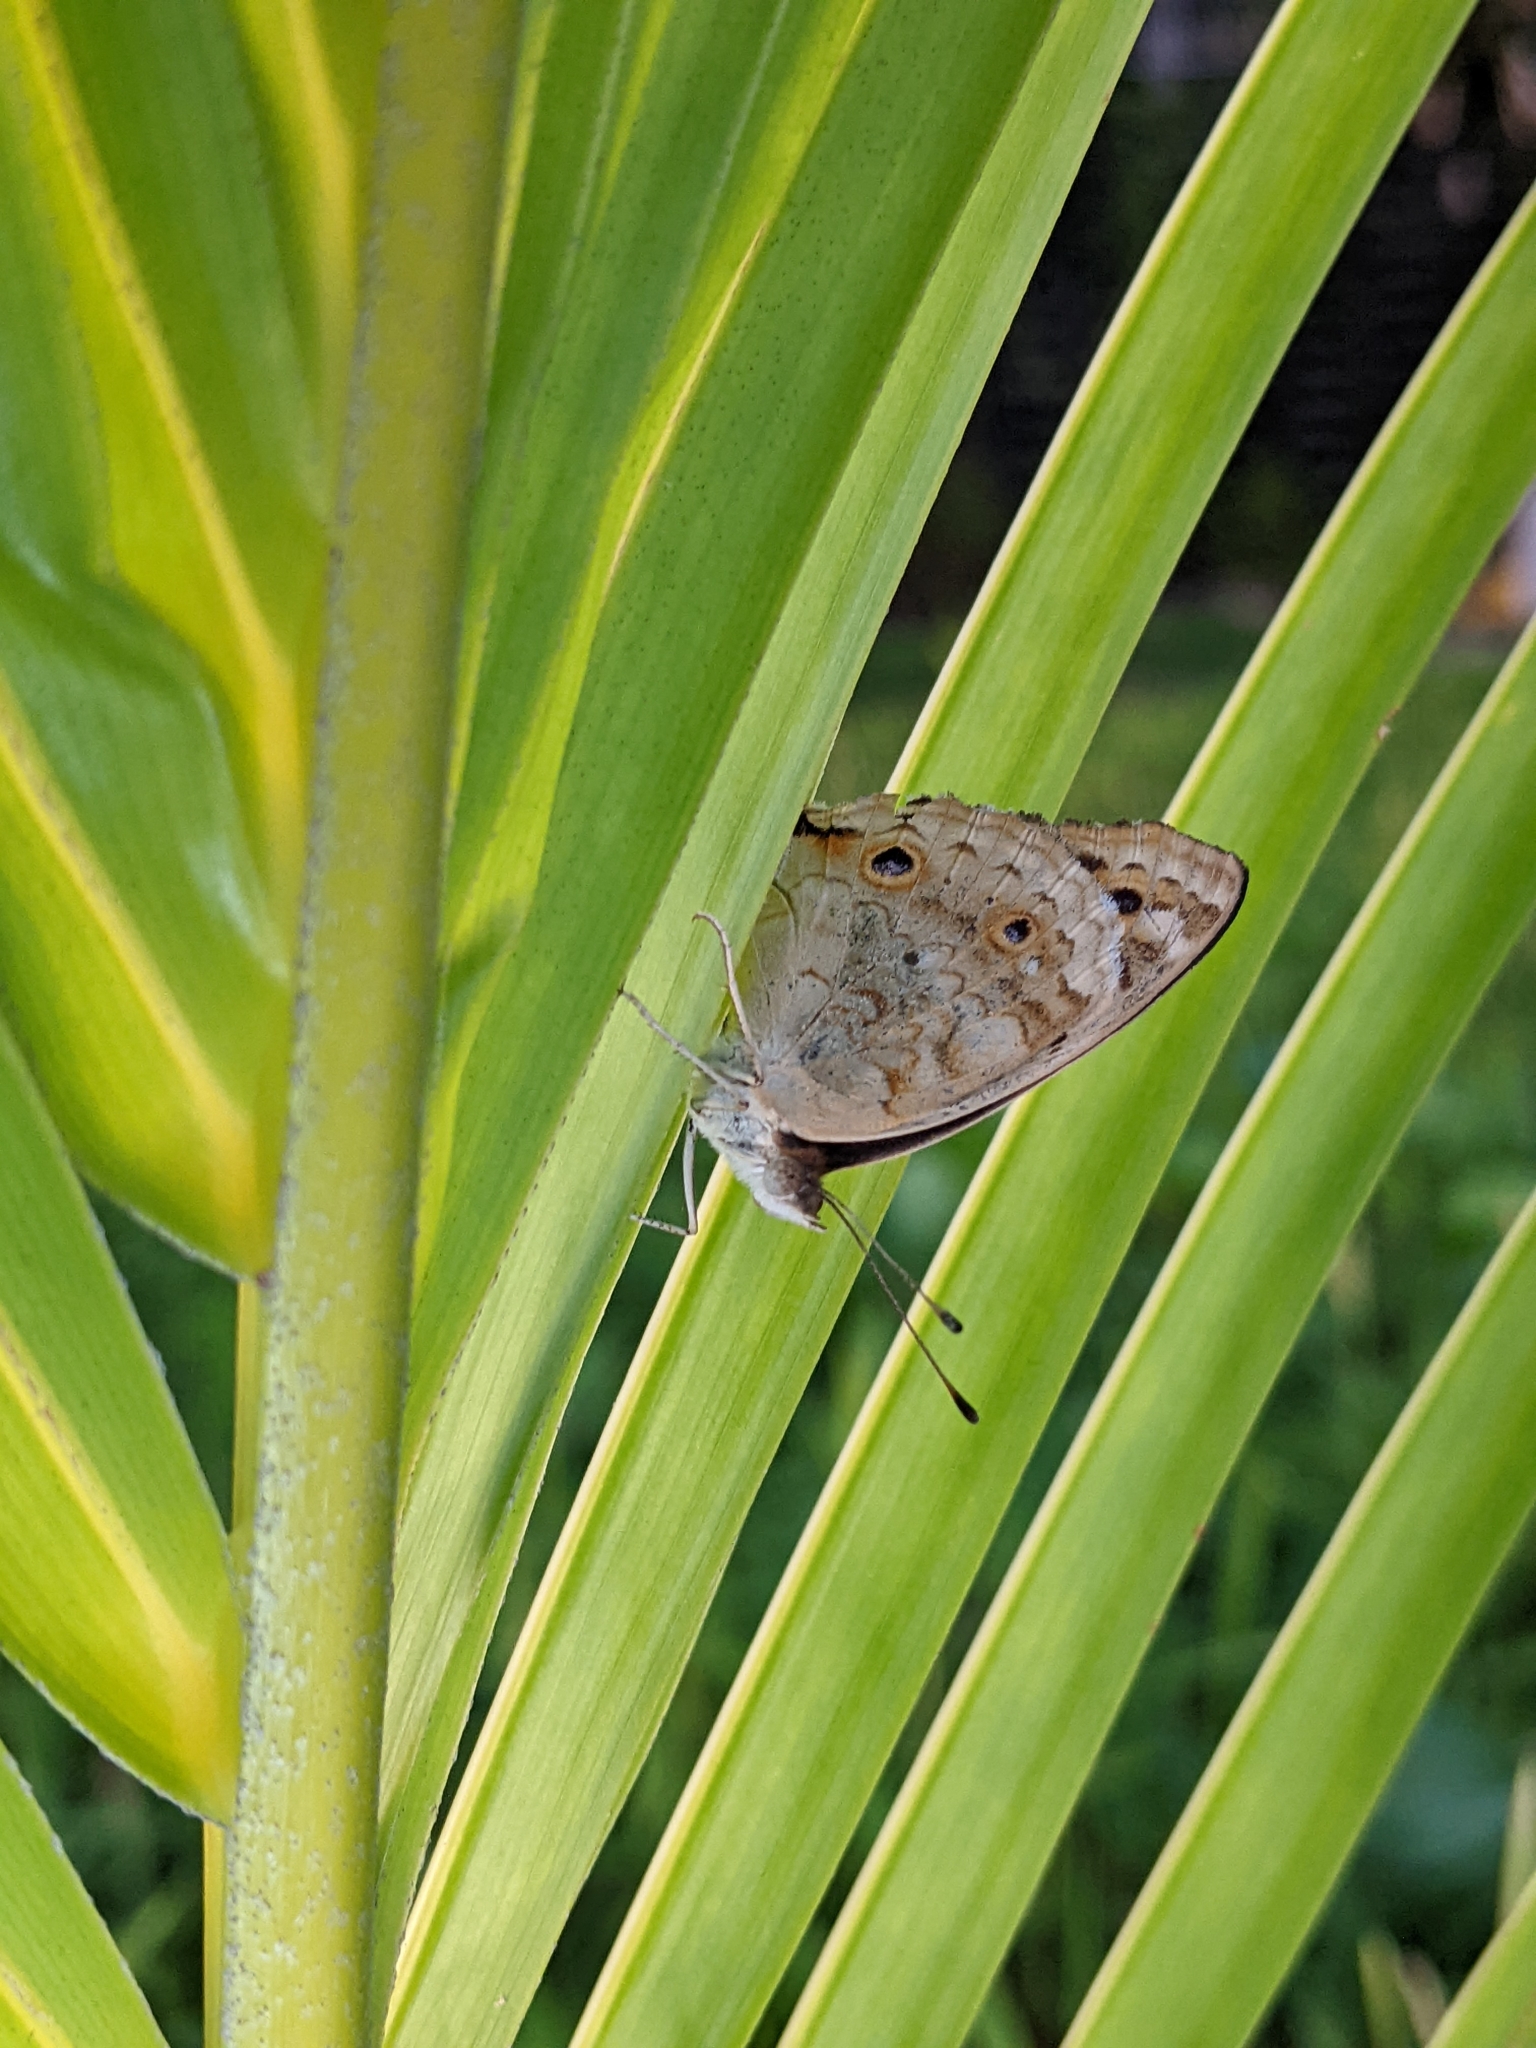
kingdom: Animalia
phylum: Arthropoda
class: Insecta
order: Lepidoptera
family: Nymphalidae
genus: Junonia
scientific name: Junonia orithya
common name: Blue pansy
